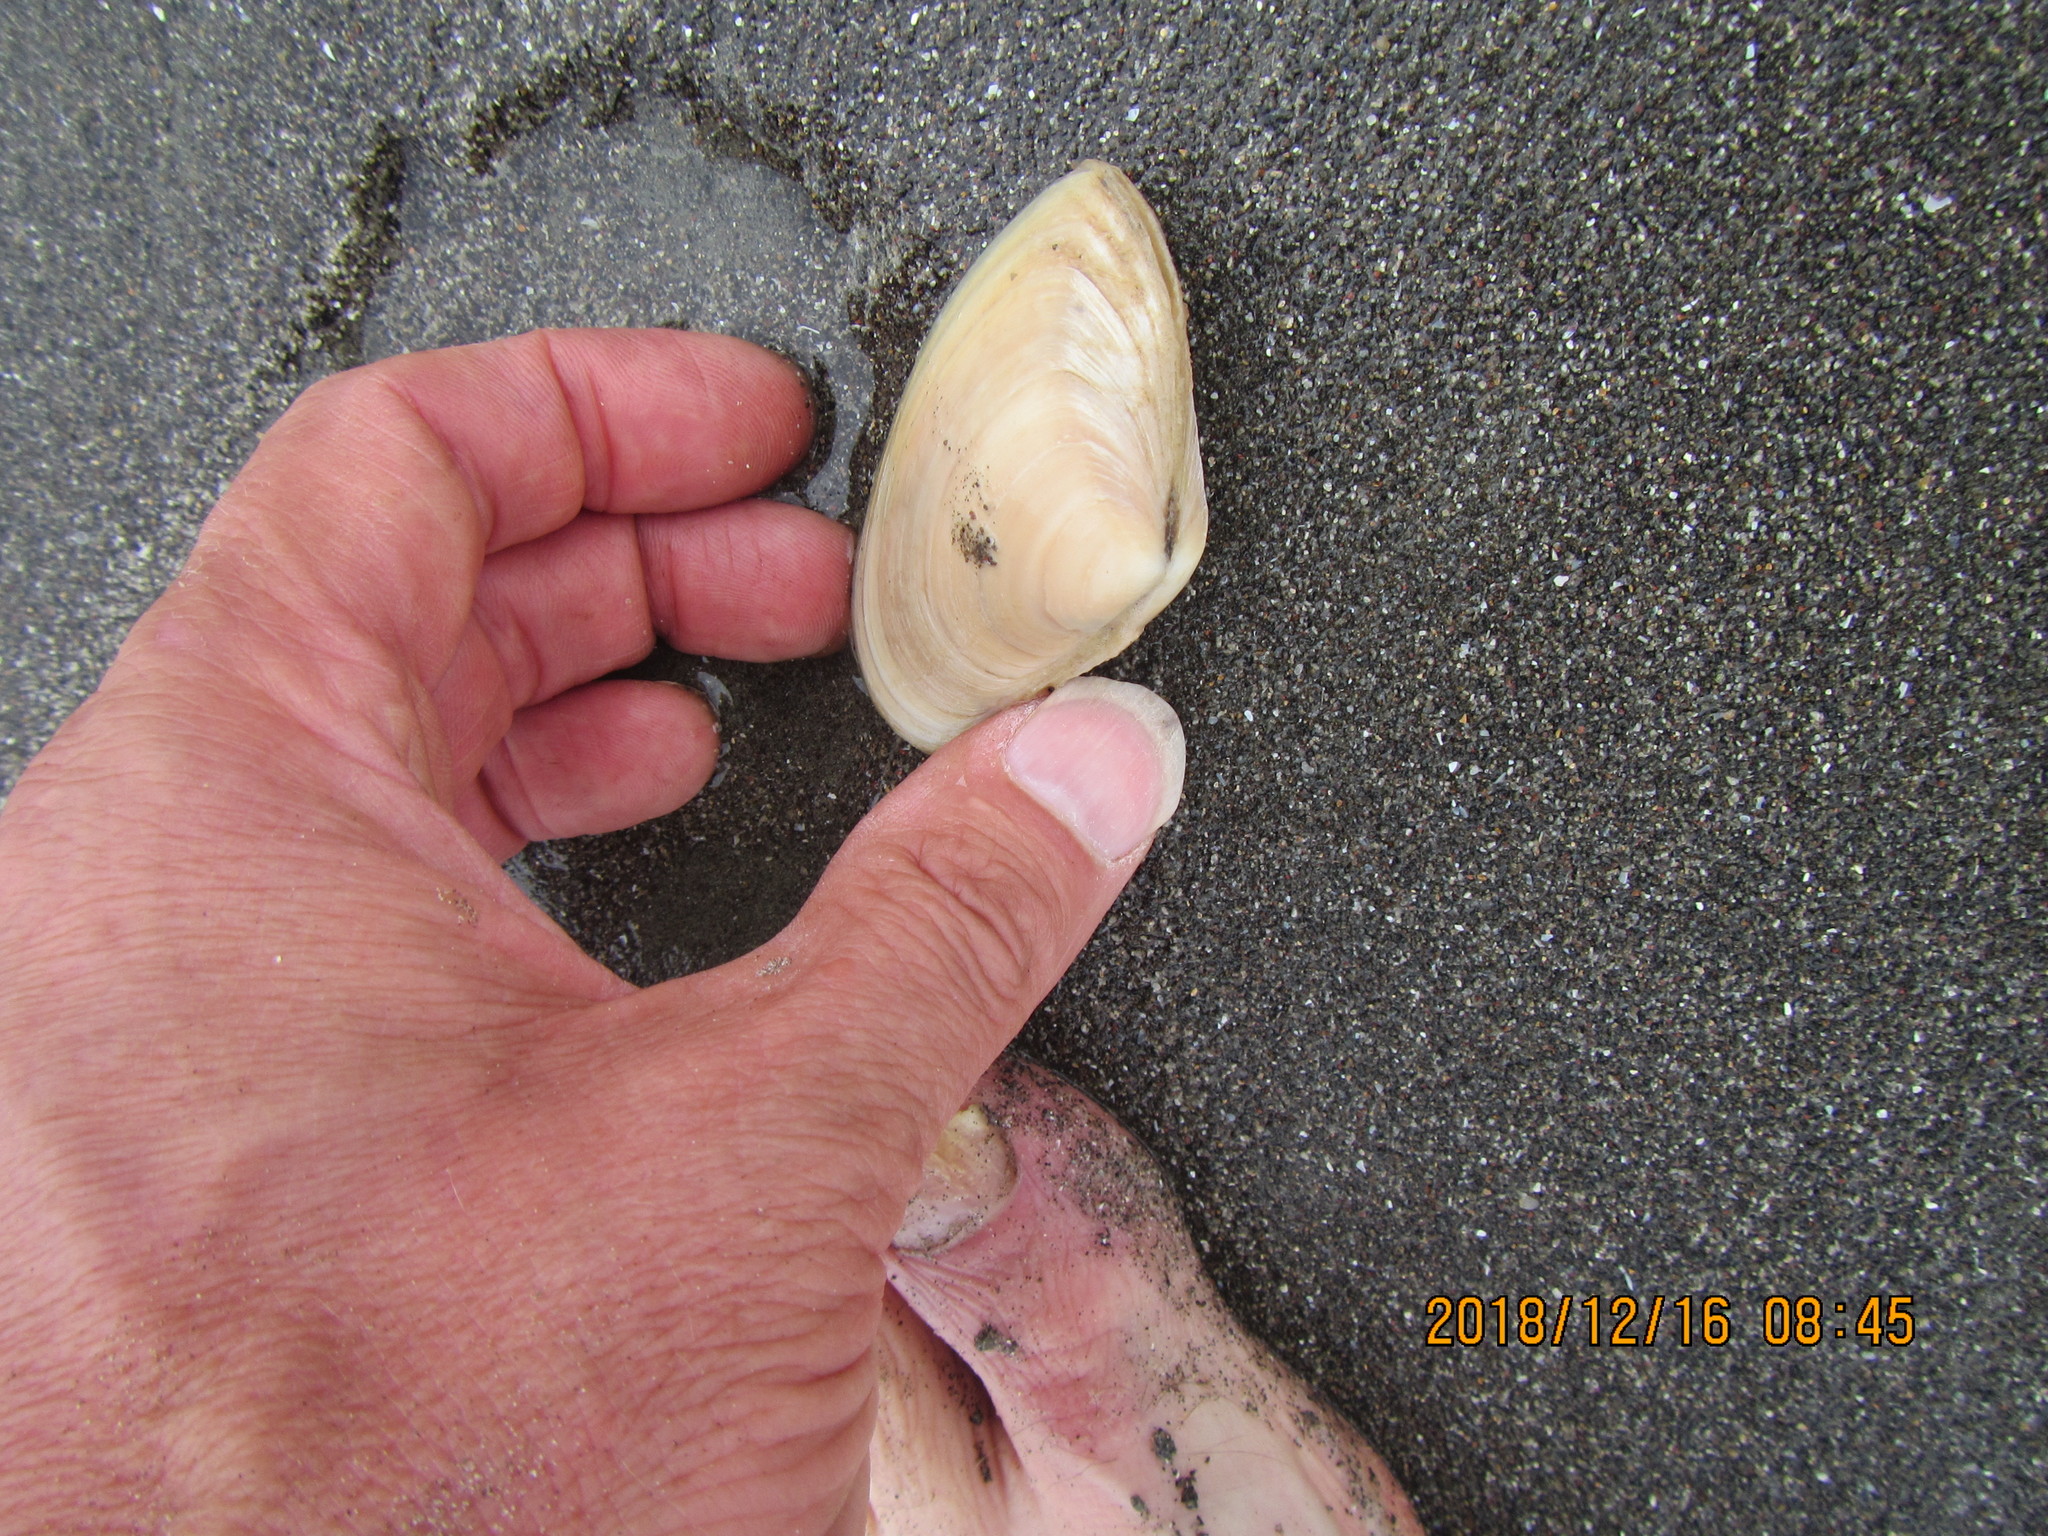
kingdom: Animalia
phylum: Mollusca
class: Bivalvia
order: Venerida
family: Mesodesmatidae
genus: Paphies
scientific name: Paphies donacina
